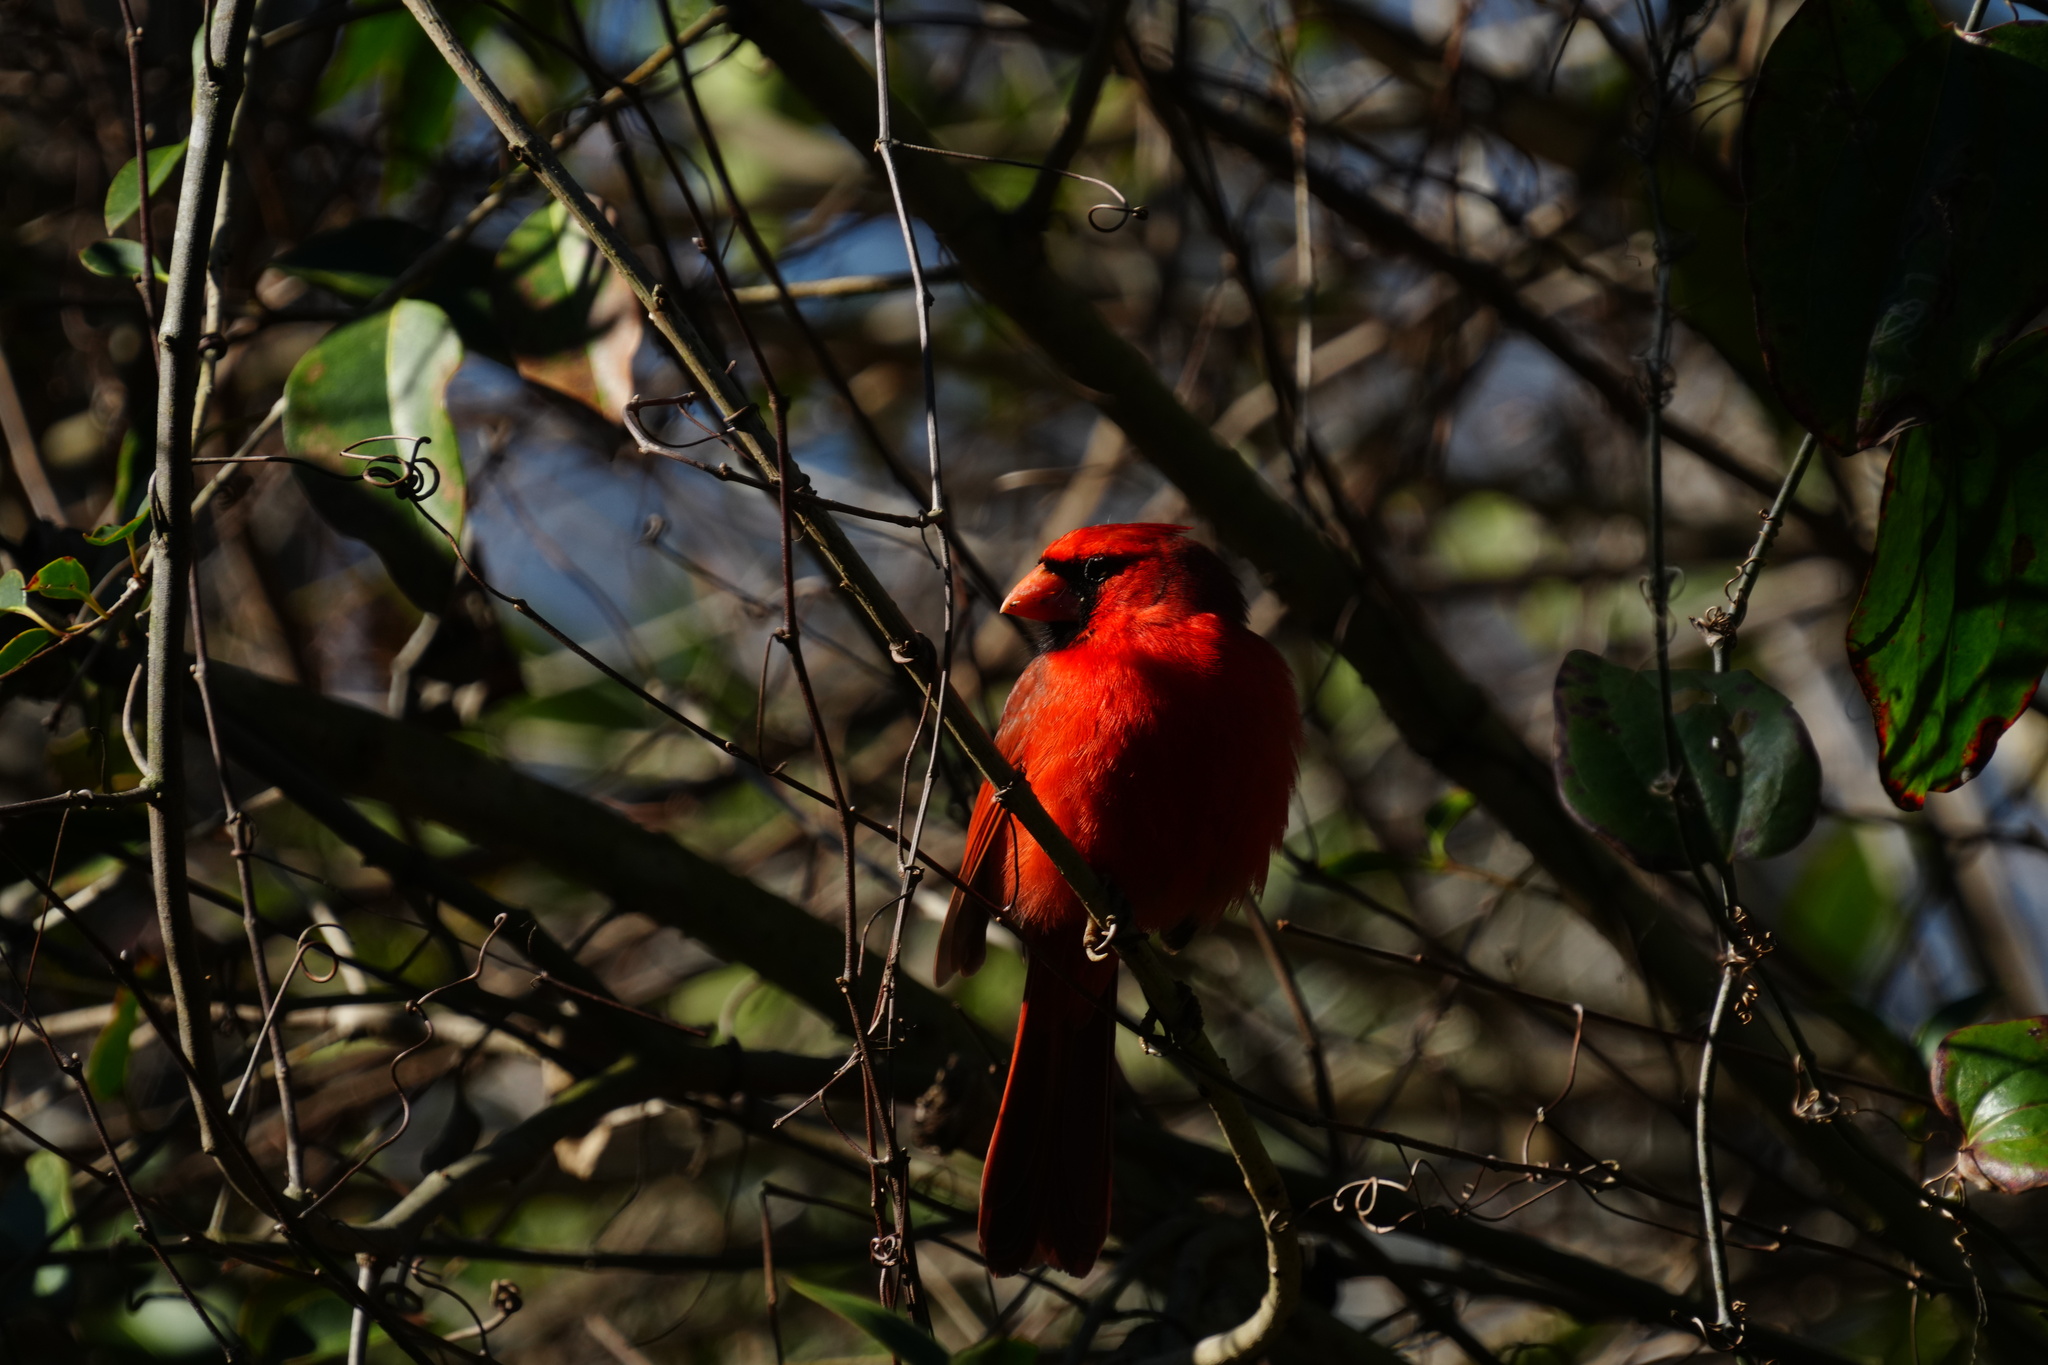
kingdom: Animalia
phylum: Chordata
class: Aves
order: Passeriformes
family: Cardinalidae
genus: Cardinalis
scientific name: Cardinalis cardinalis
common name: Northern cardinal
